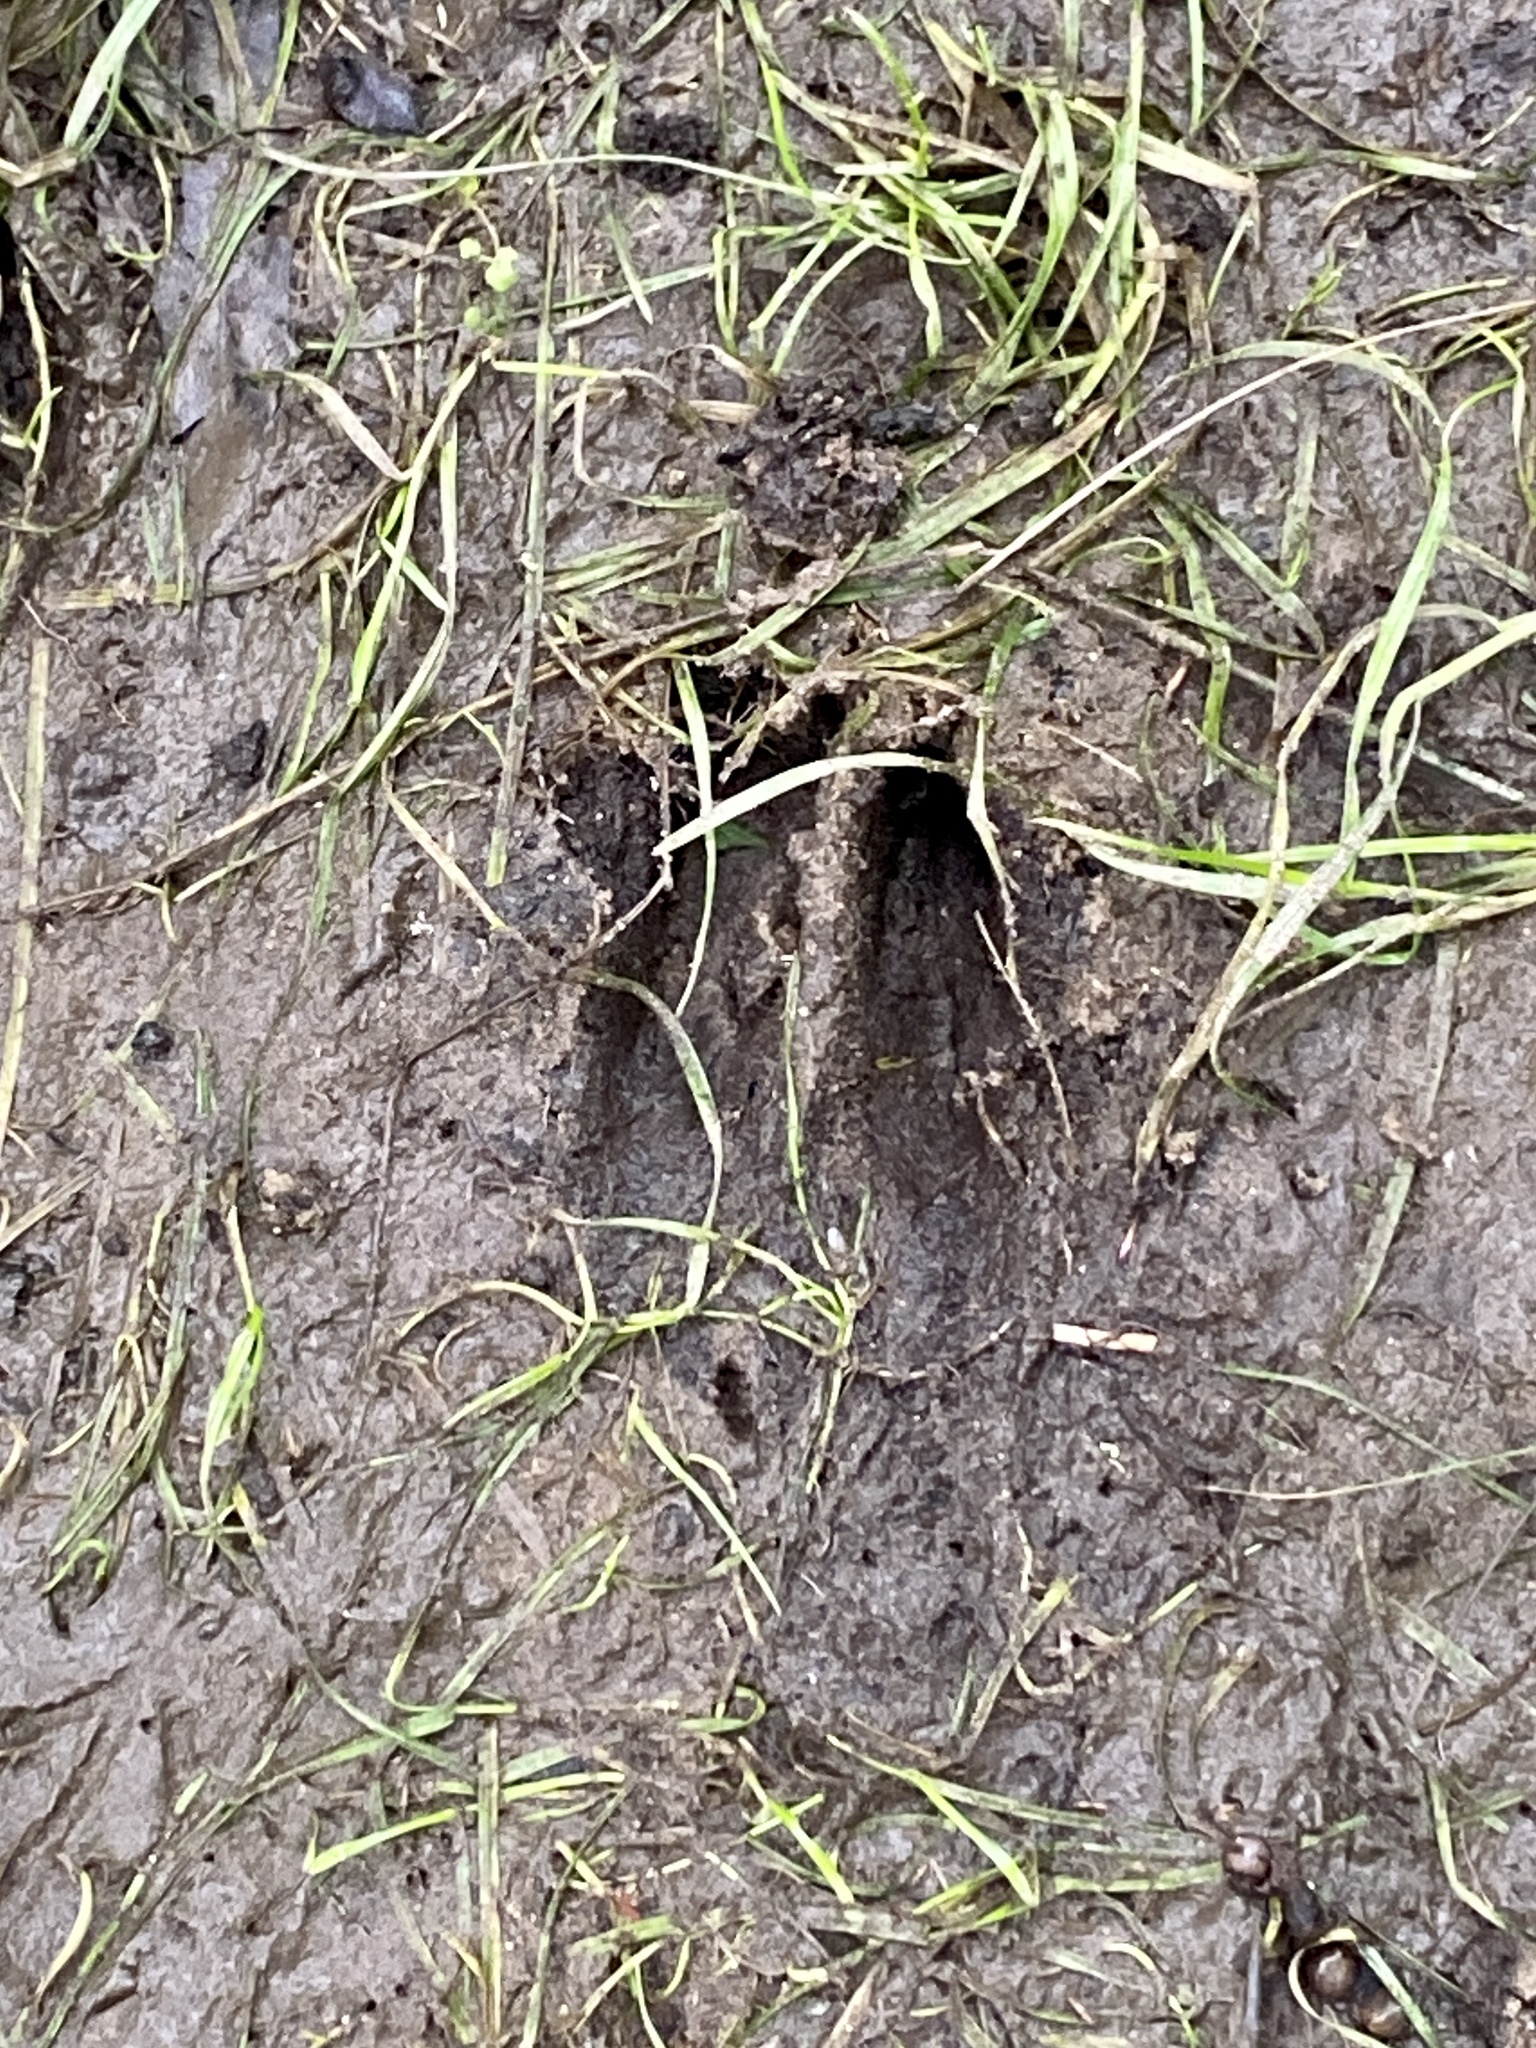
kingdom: Animalia
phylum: Chordata
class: Mammalia
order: Artiodactyla
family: Cervidae
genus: Odocoileus
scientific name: Odocoileus virginianus
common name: White-tailed deer
